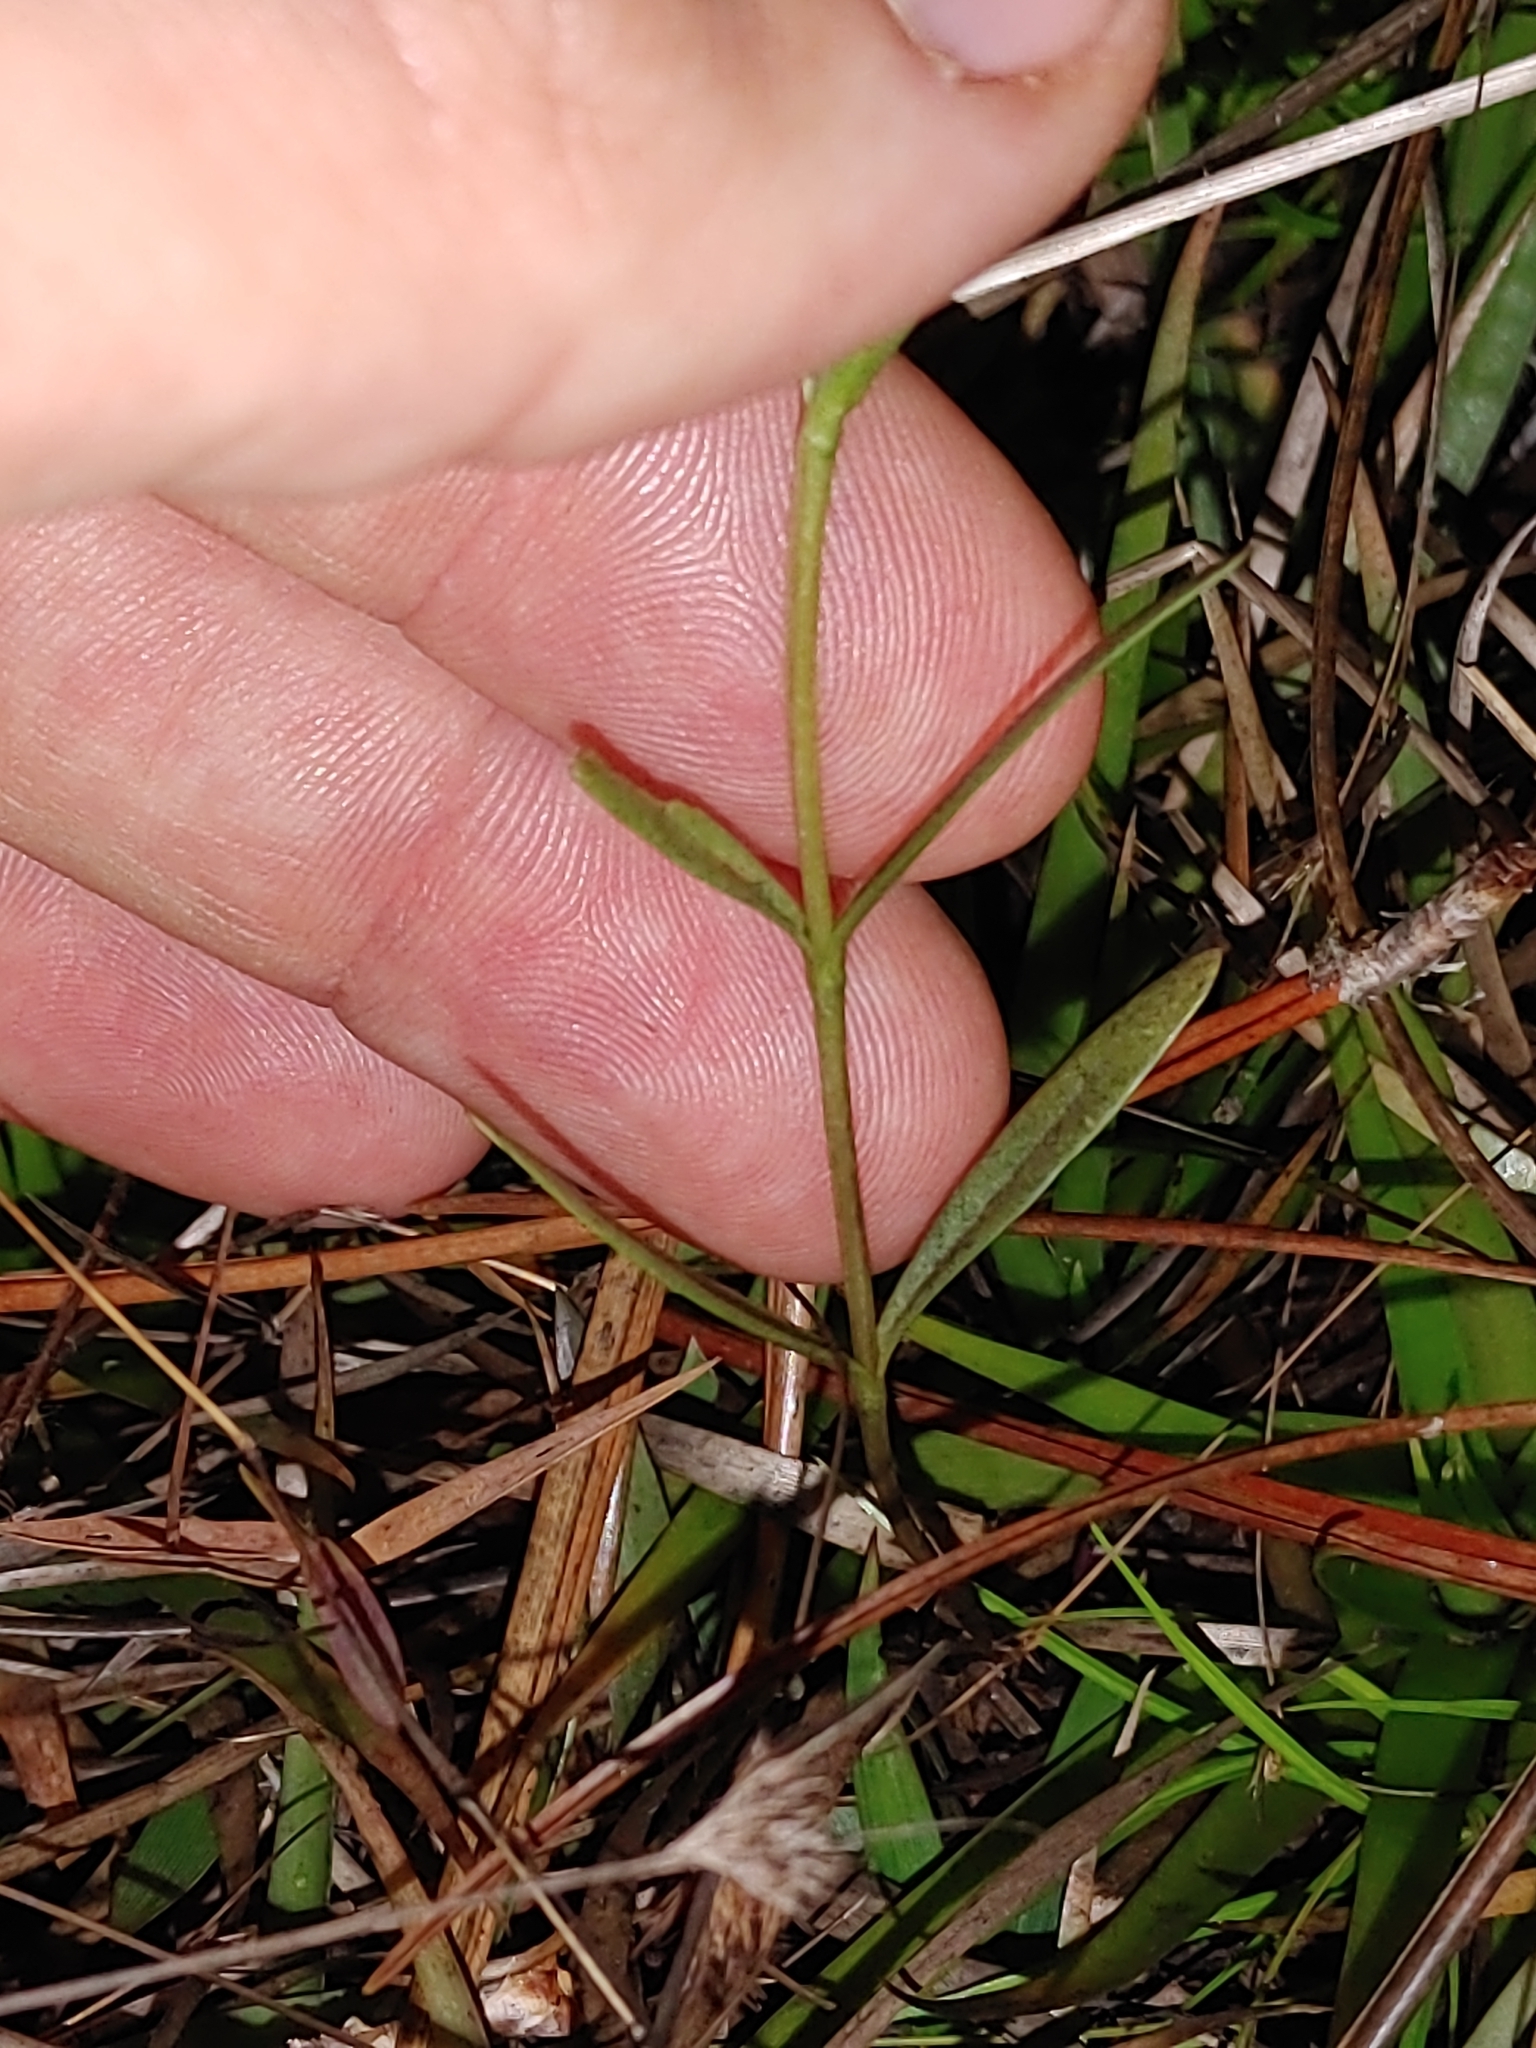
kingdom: Plantae
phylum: Tracheophyta
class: Magnoliopsida
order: Gentianales
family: Gentianaceae
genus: Gentiana
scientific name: Gentiana pennelliana
